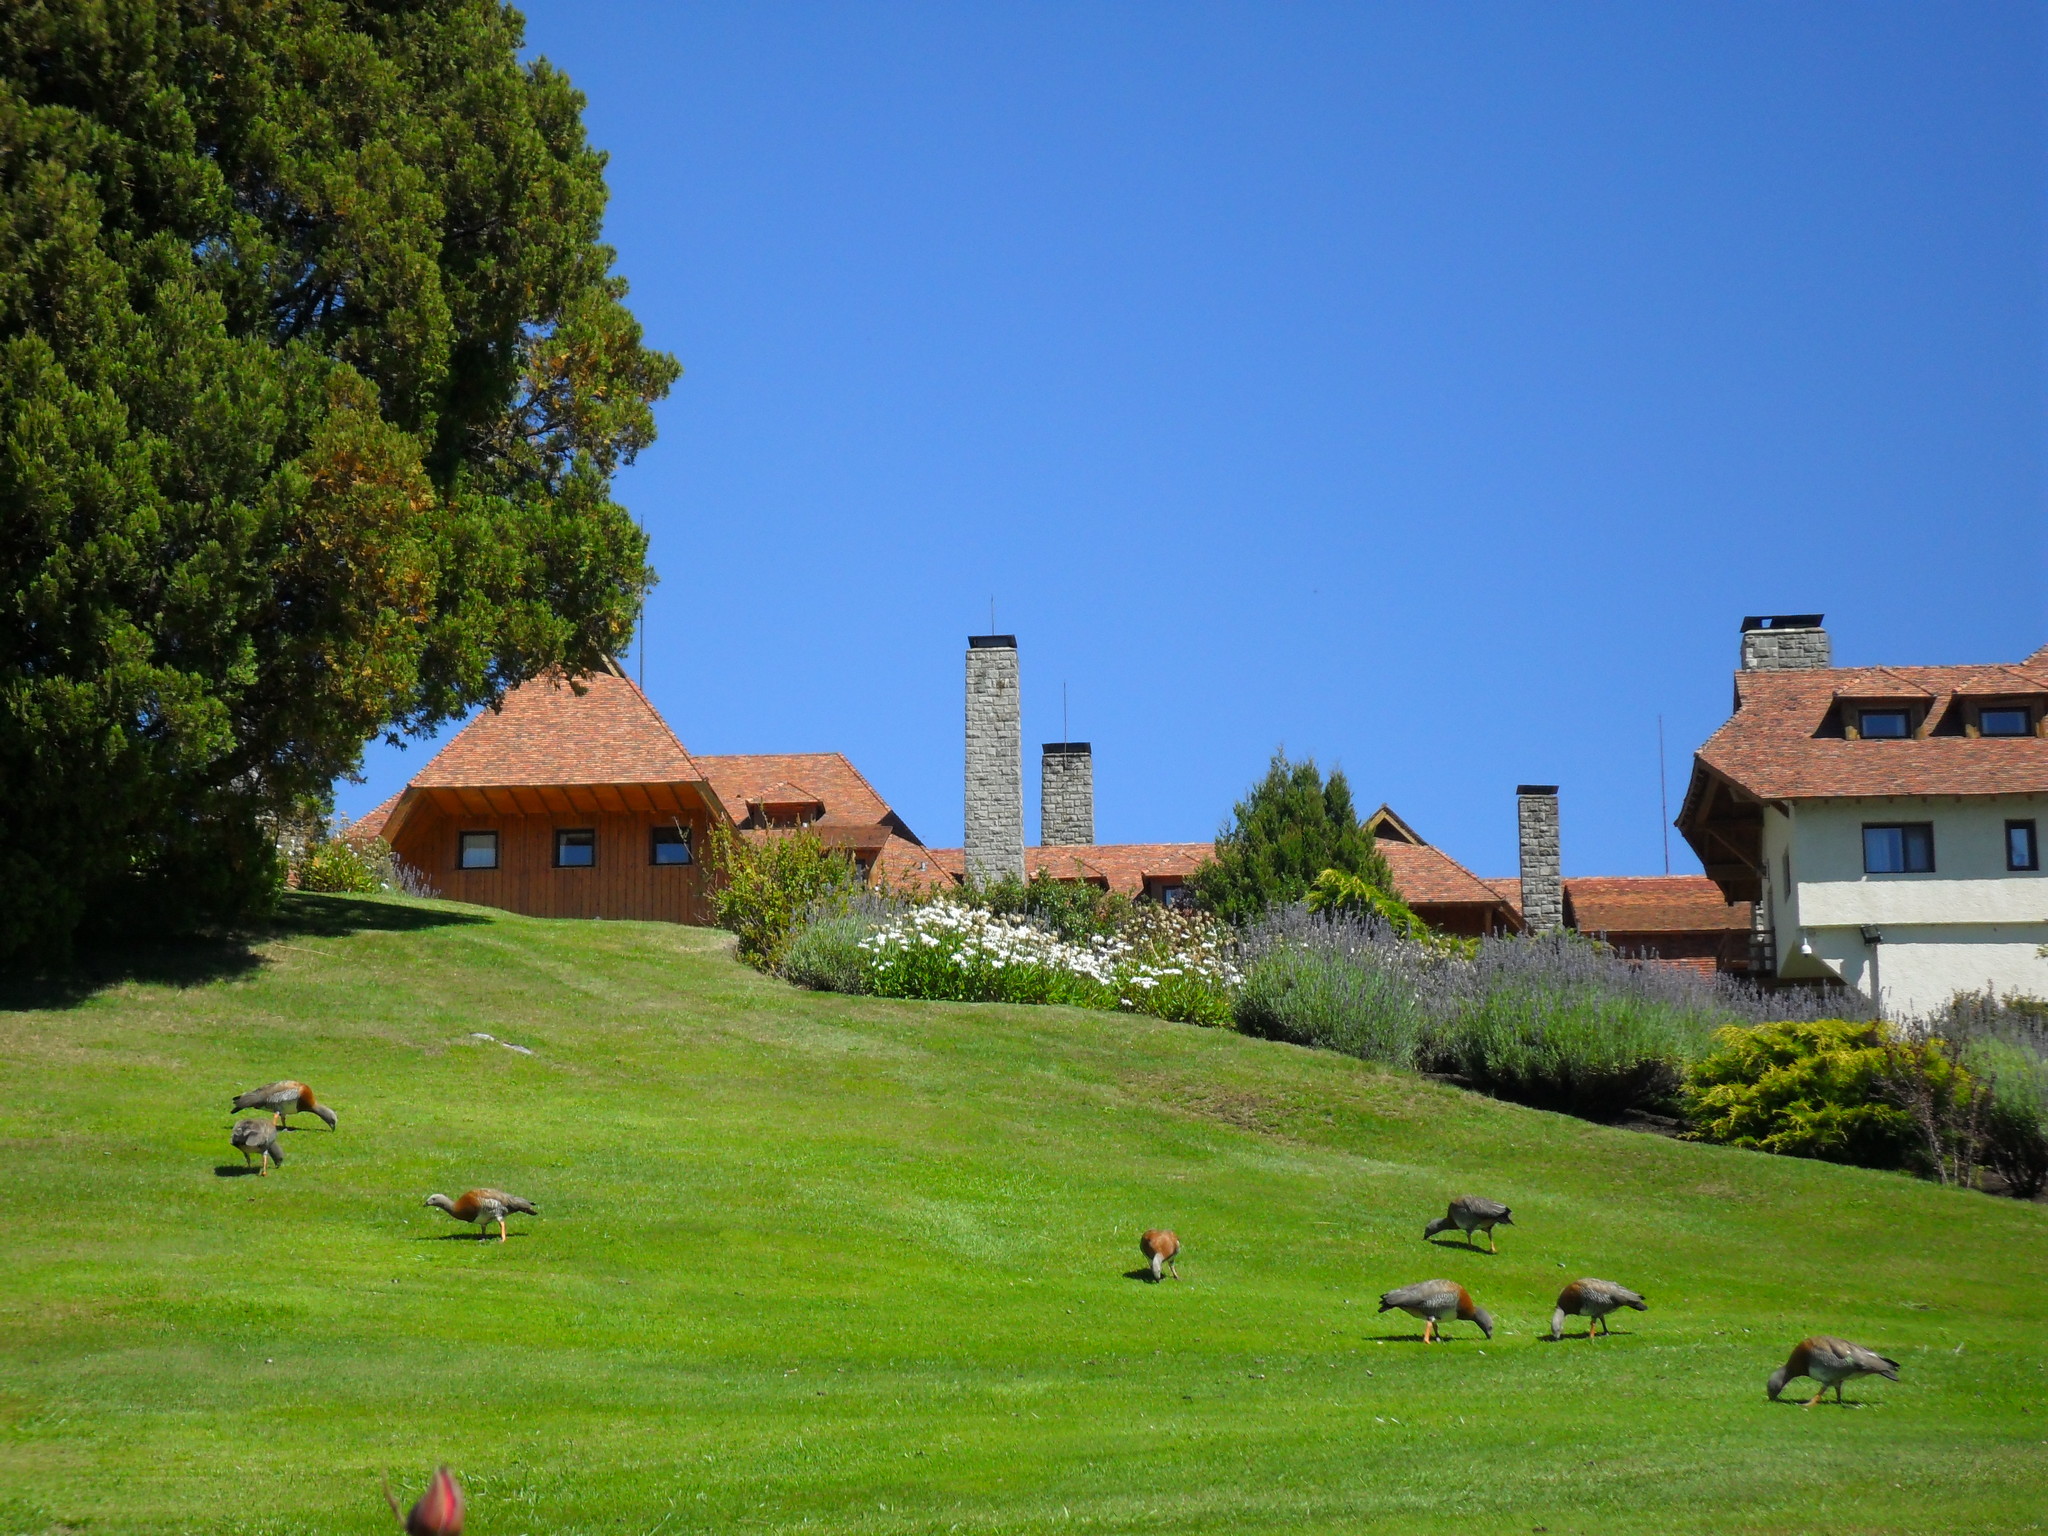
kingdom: Animalia
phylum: Chordata
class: Aves
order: Anseriformes
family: Anatidae
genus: Chloephaga
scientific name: Chloephaga poliocephala
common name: Ashy-headed goose
